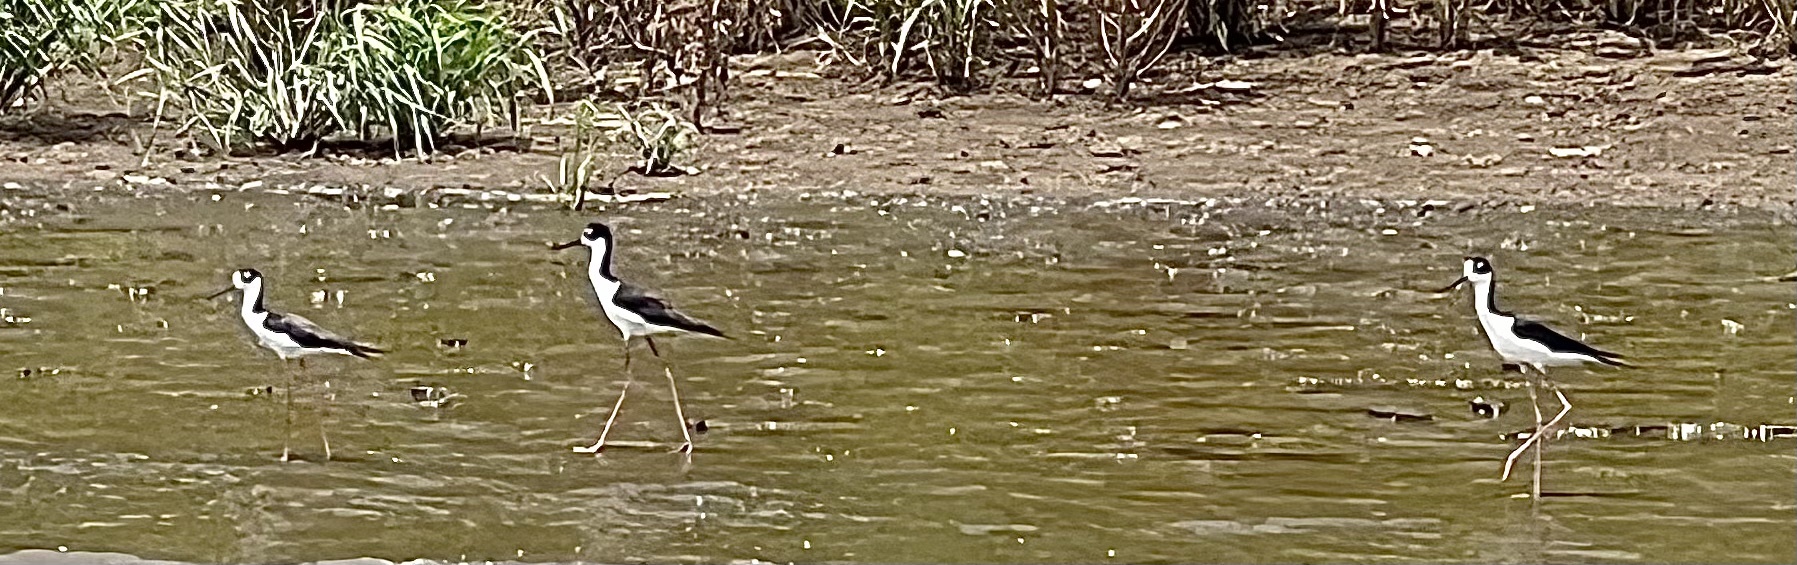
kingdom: Animalia
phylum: Chordata
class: Aves
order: Charadriiformes
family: Recurvirostridae
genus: Himantopus
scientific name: Himantopus mexicanus
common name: Black-necked stilt
